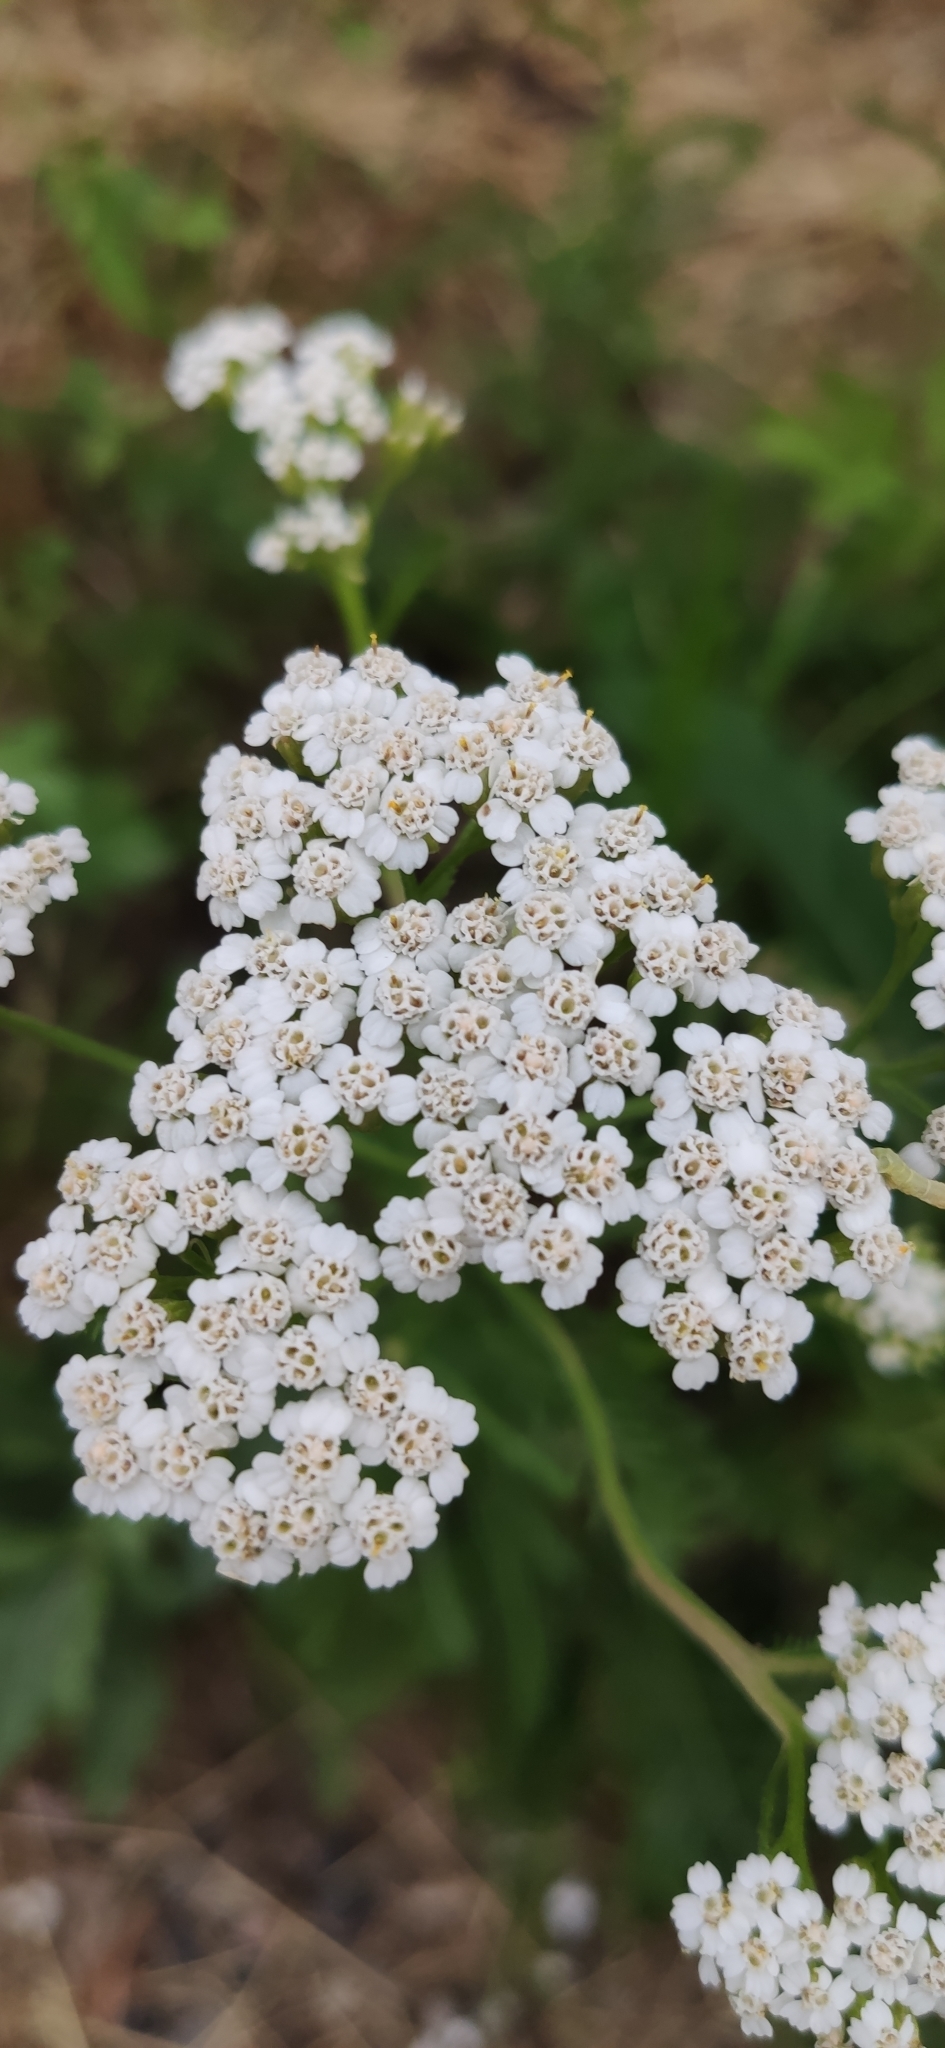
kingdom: Plantae
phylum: Tracheophyta
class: Magnoliopsida
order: Asterales
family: Asteraceae
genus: Achillea
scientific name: Achillea millefolium
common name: Yarrow
